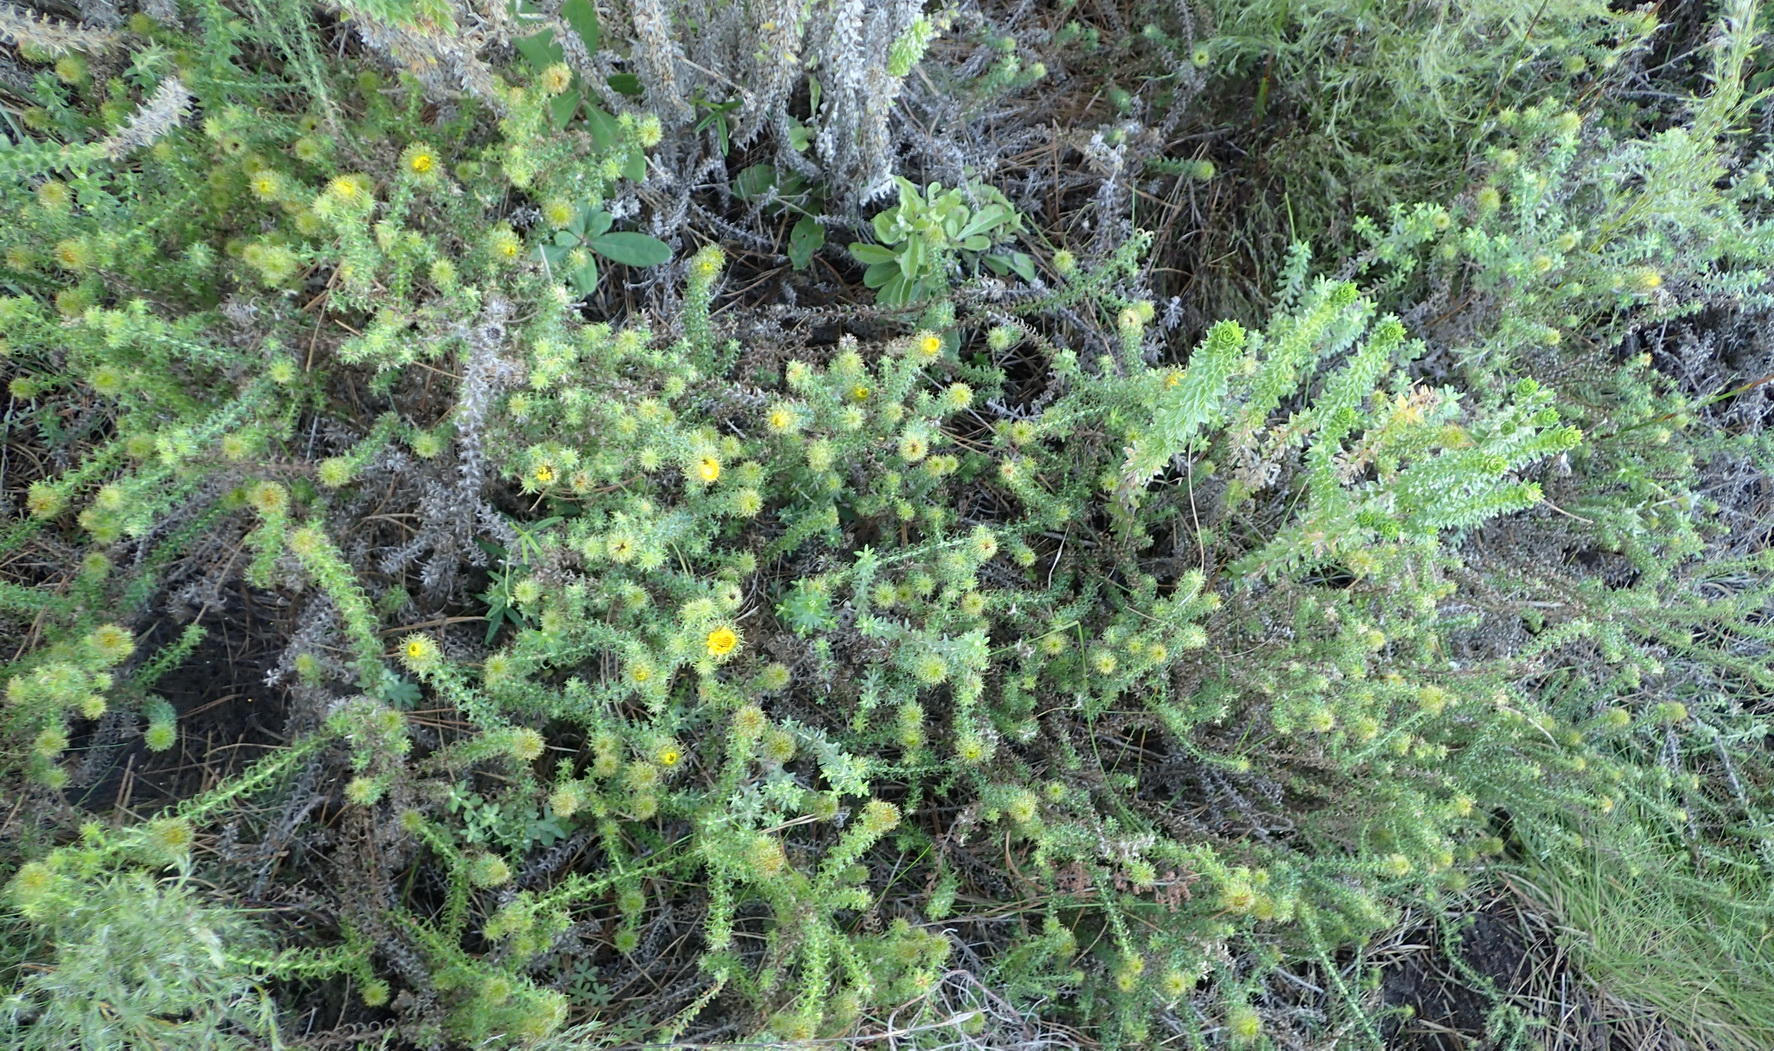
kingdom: Plantae
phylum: Tracheophyta
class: Magnoliopsida
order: Asterales
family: Asteraceae
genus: Cullumia
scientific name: Cullumia decurrens
